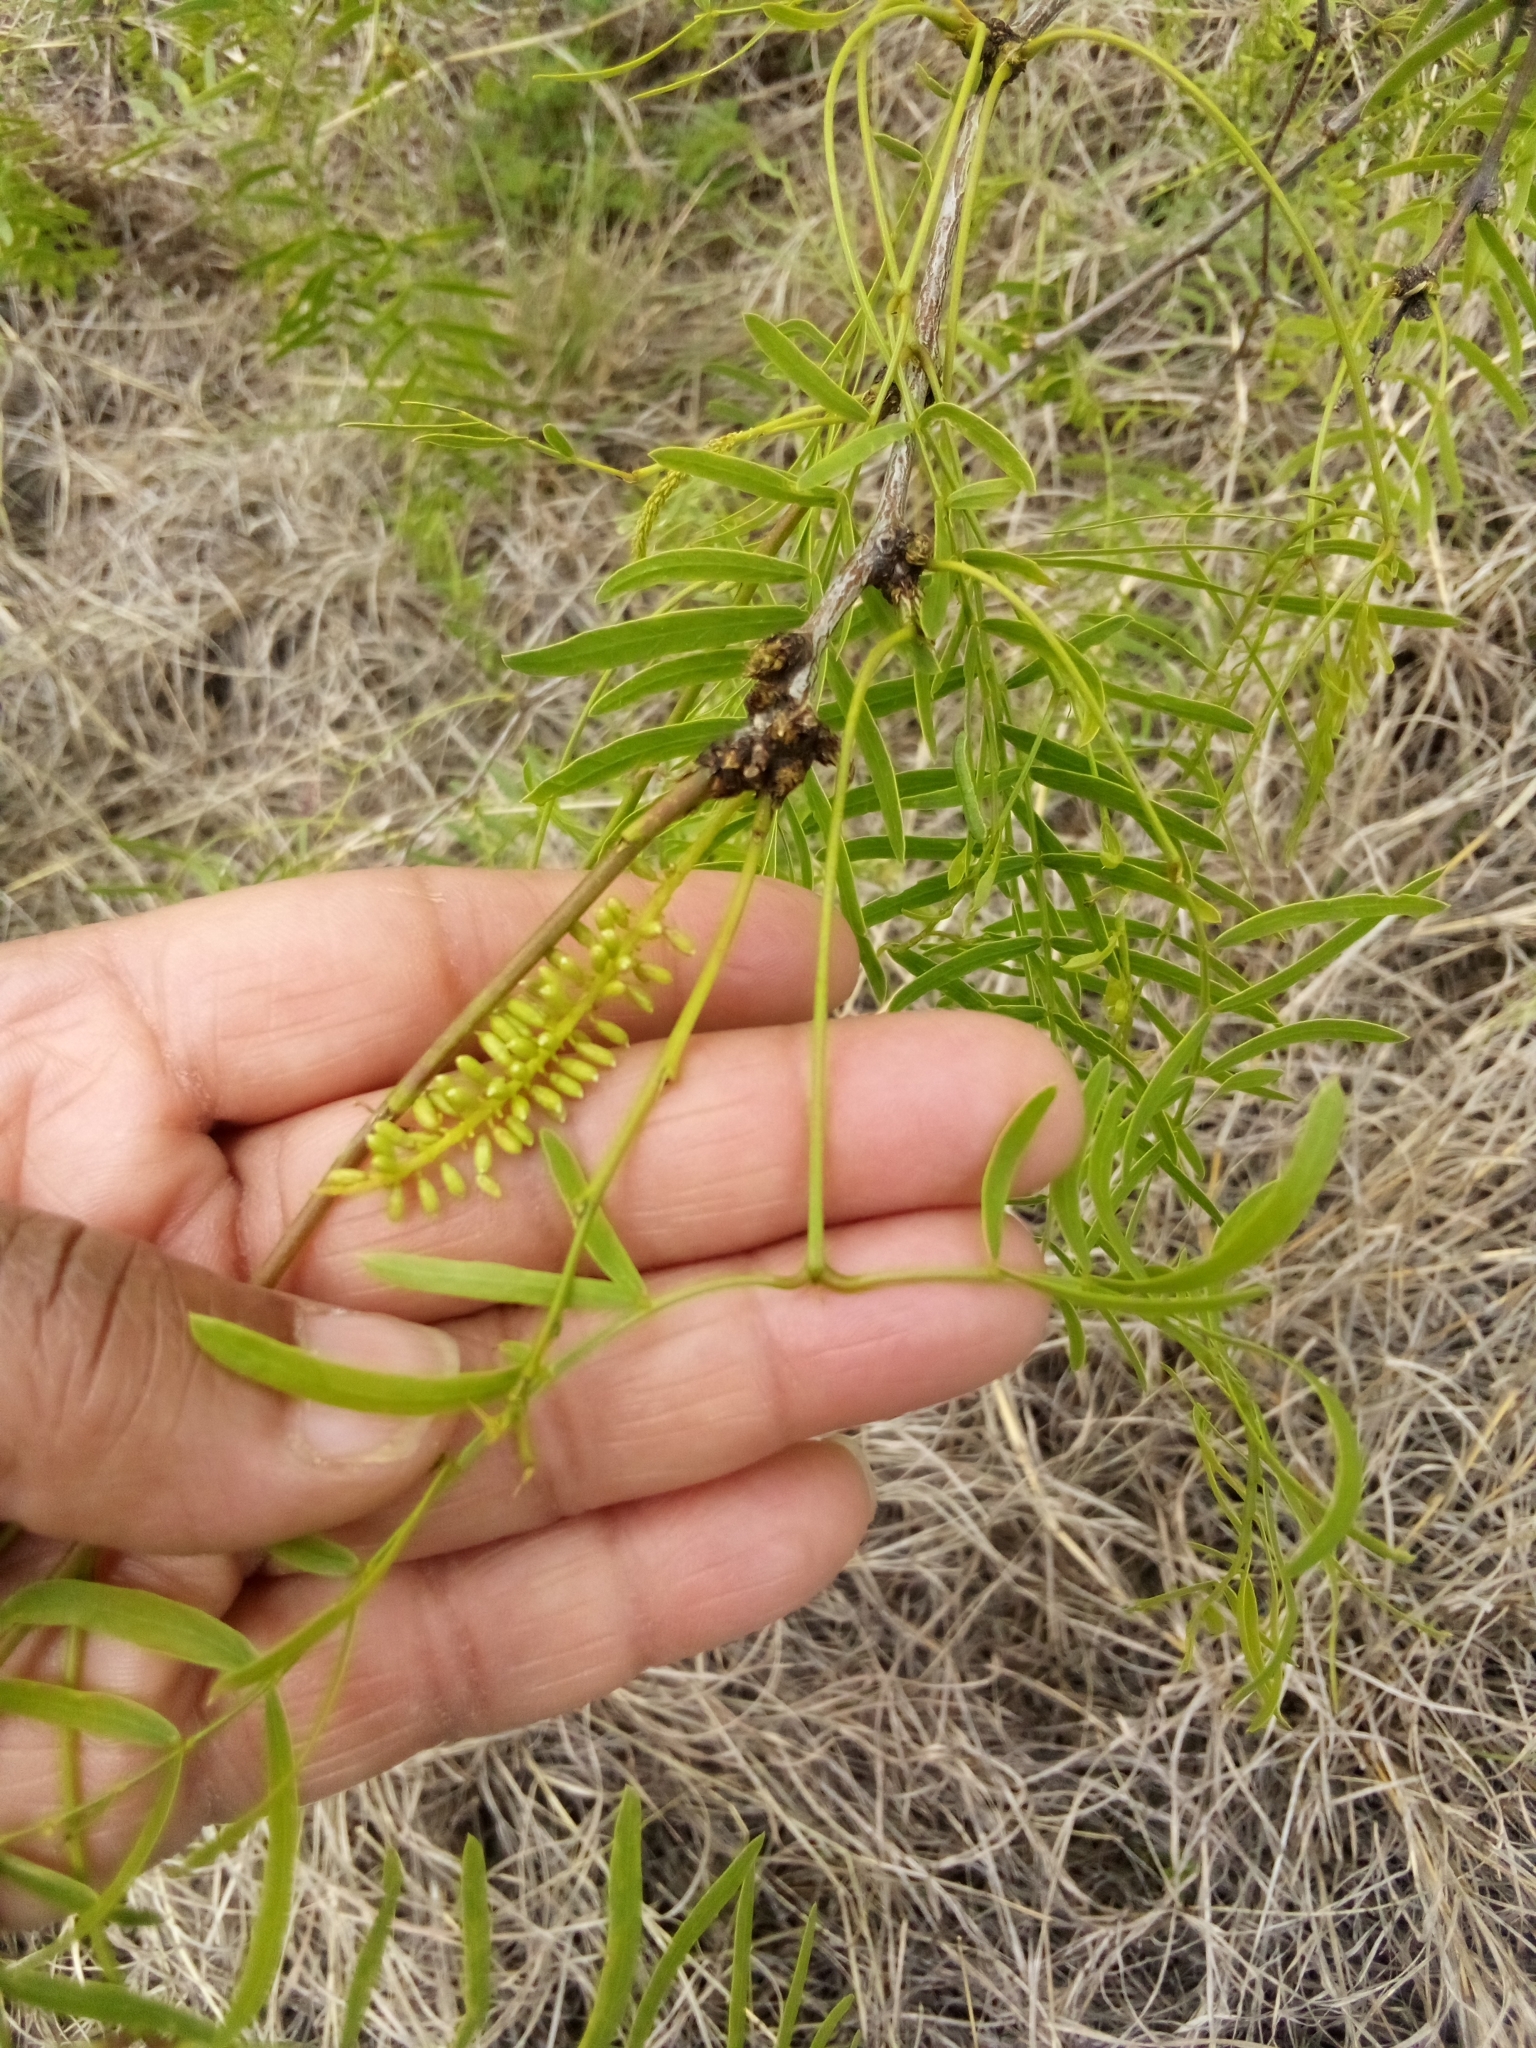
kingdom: Plantae
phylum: Tracheophyta
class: Magnoliopsida
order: Fabales
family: Fabaceae
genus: Prosopis
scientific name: Prosopis glandulosa
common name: Honey mesquite
